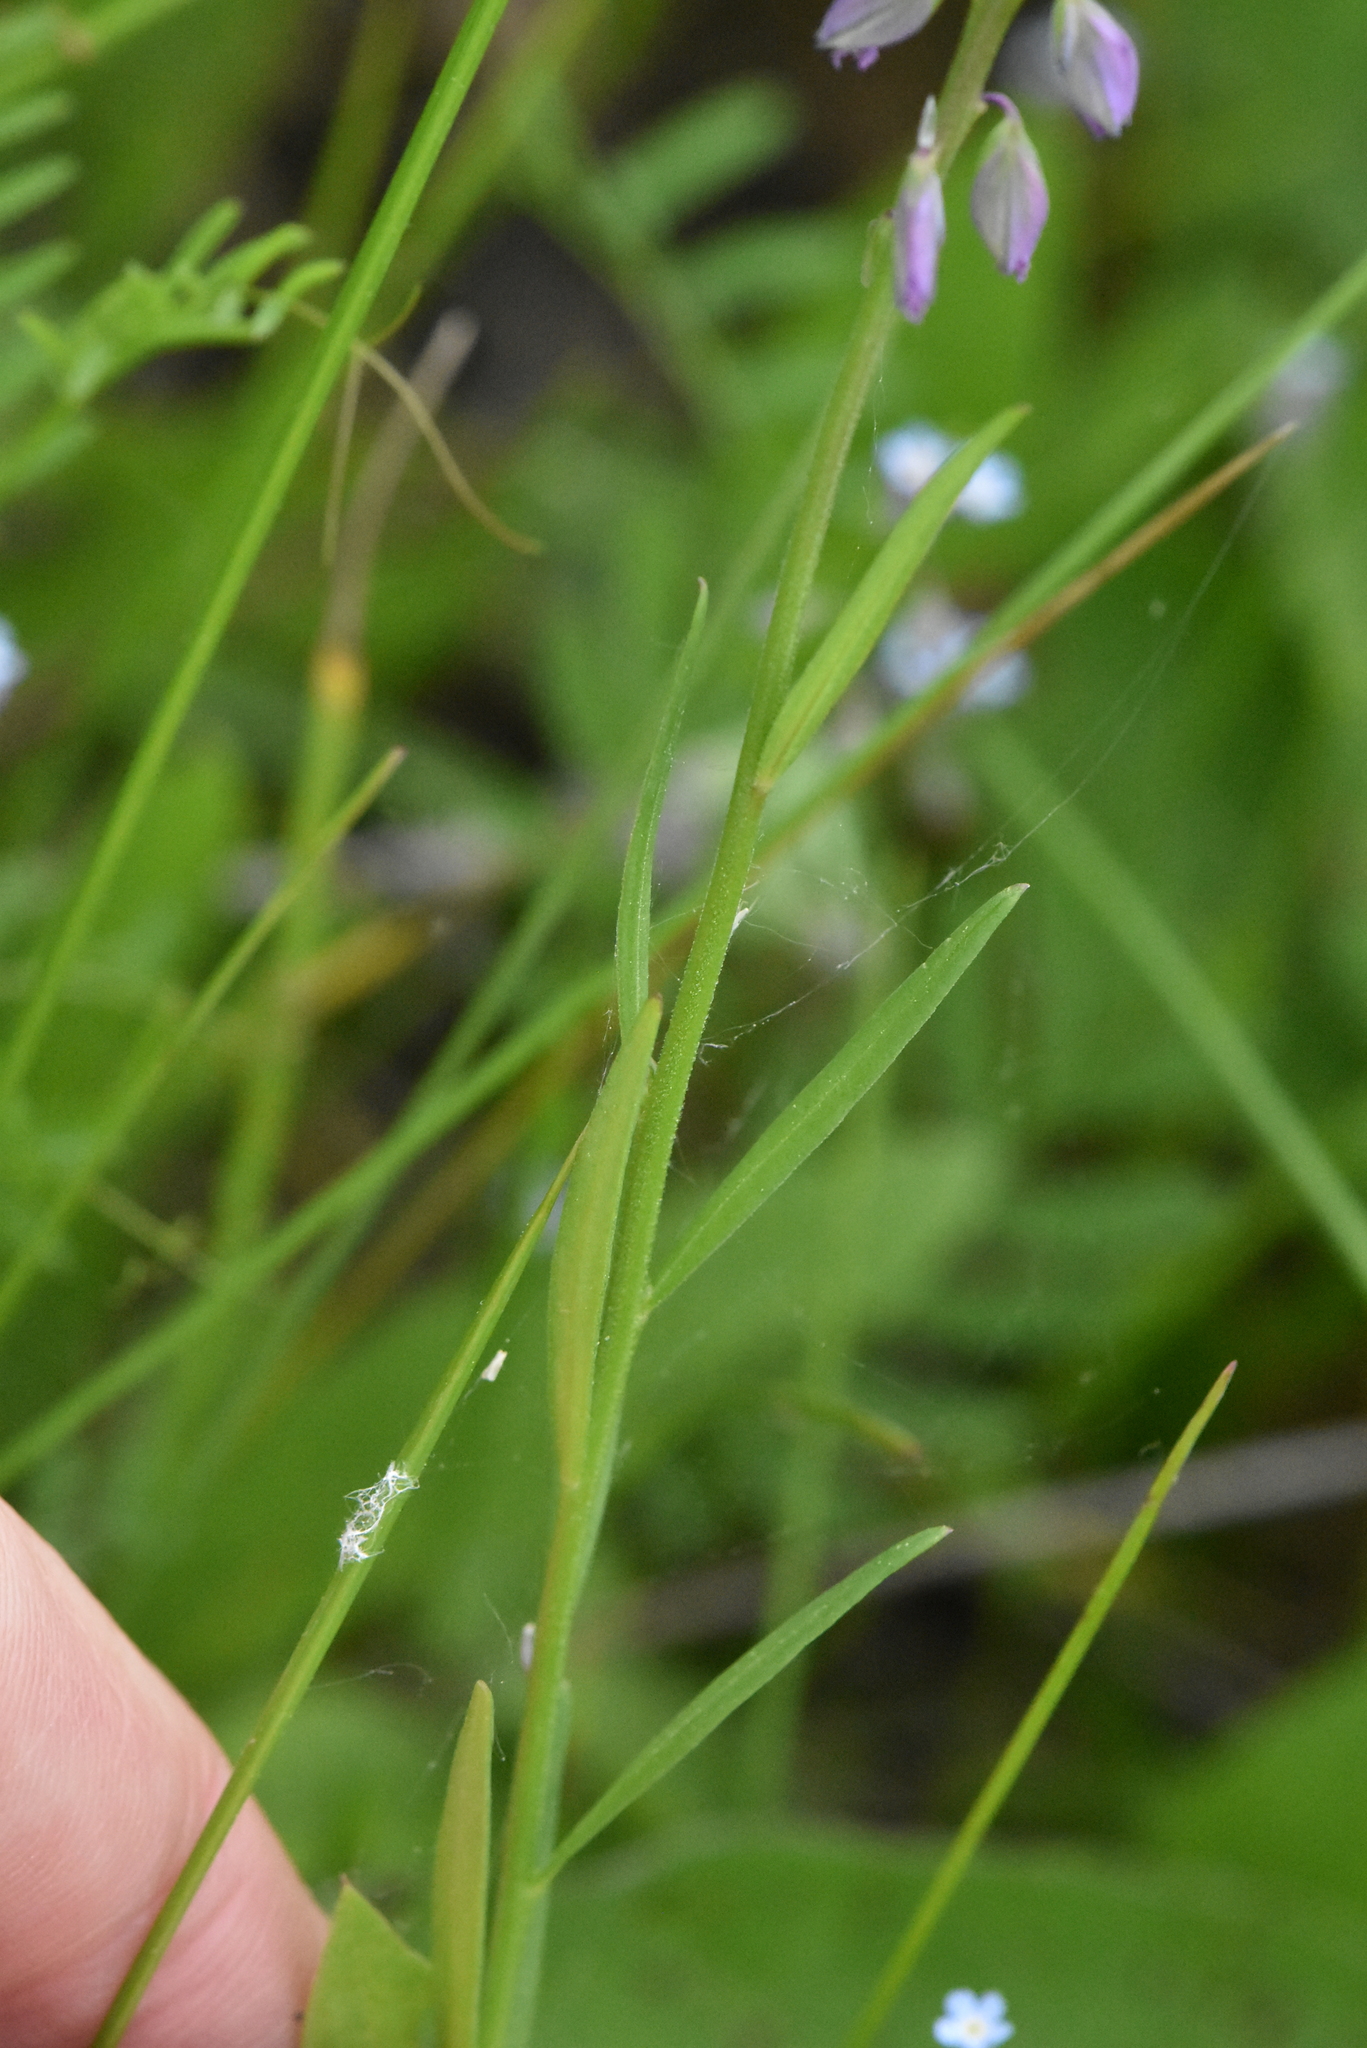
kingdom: Plantae
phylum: Tracheophyta
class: Magnoliopsida
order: Fabales
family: Polygalaceae
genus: Polygala
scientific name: Polygala comosa
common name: Tufted milkwort
